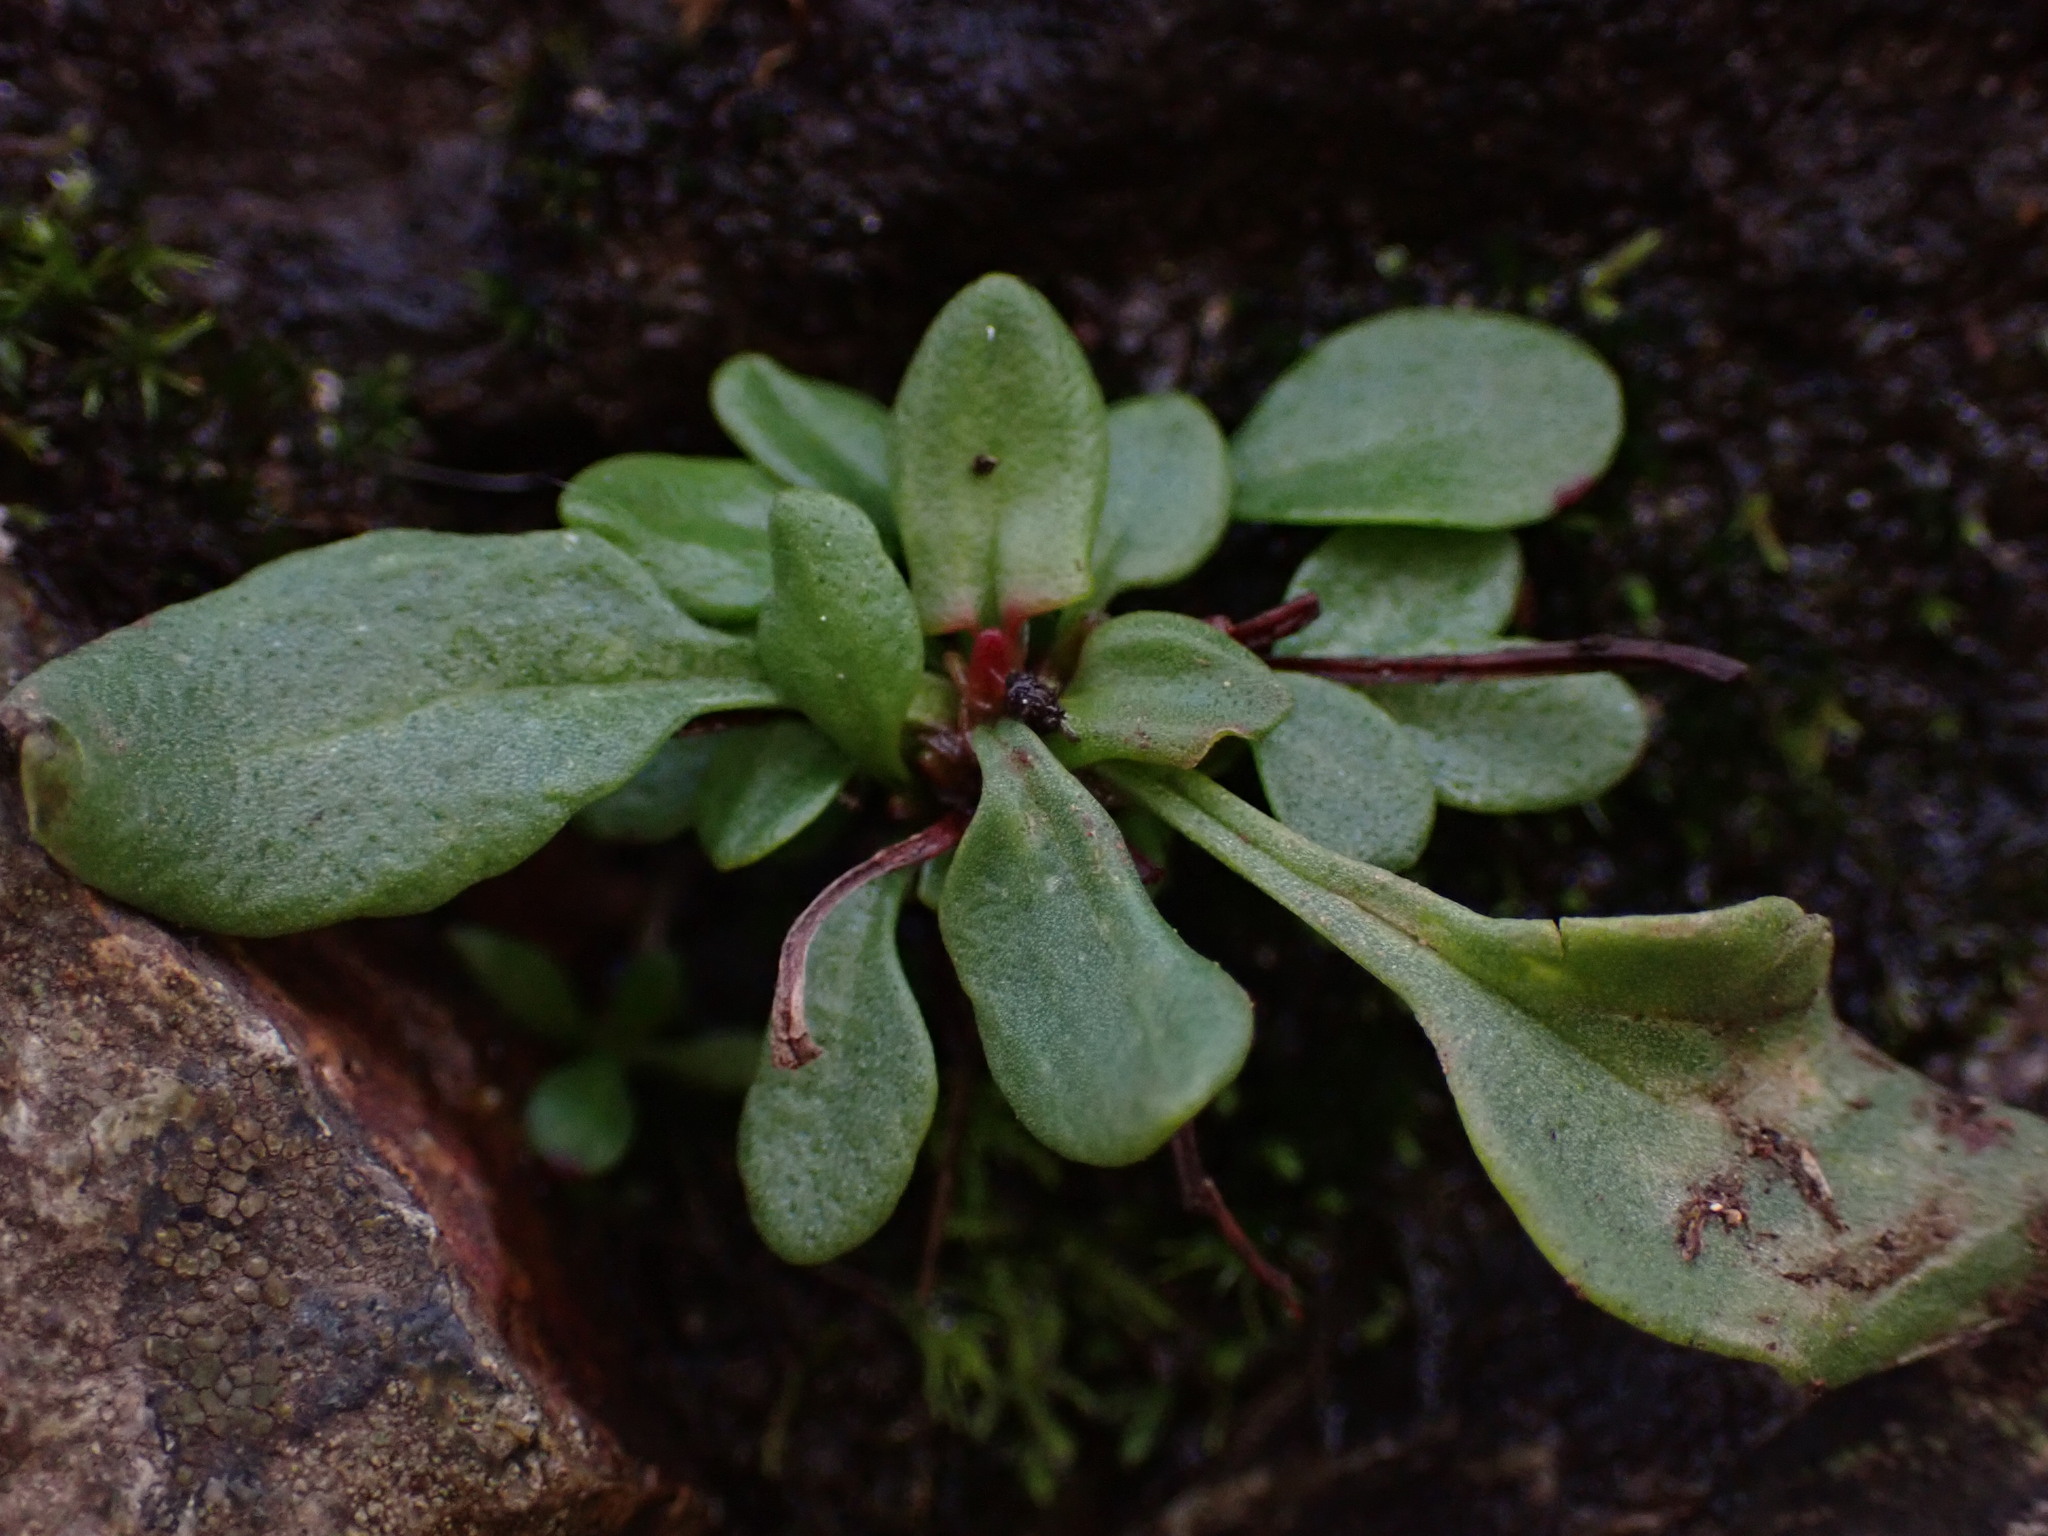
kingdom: Plantae
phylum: Tracheophyta
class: Magnoliopsida
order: Caryophyllales
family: Polygonaceae
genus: Rumex
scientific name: Rumex acetosella
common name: Common sheep sorrel
